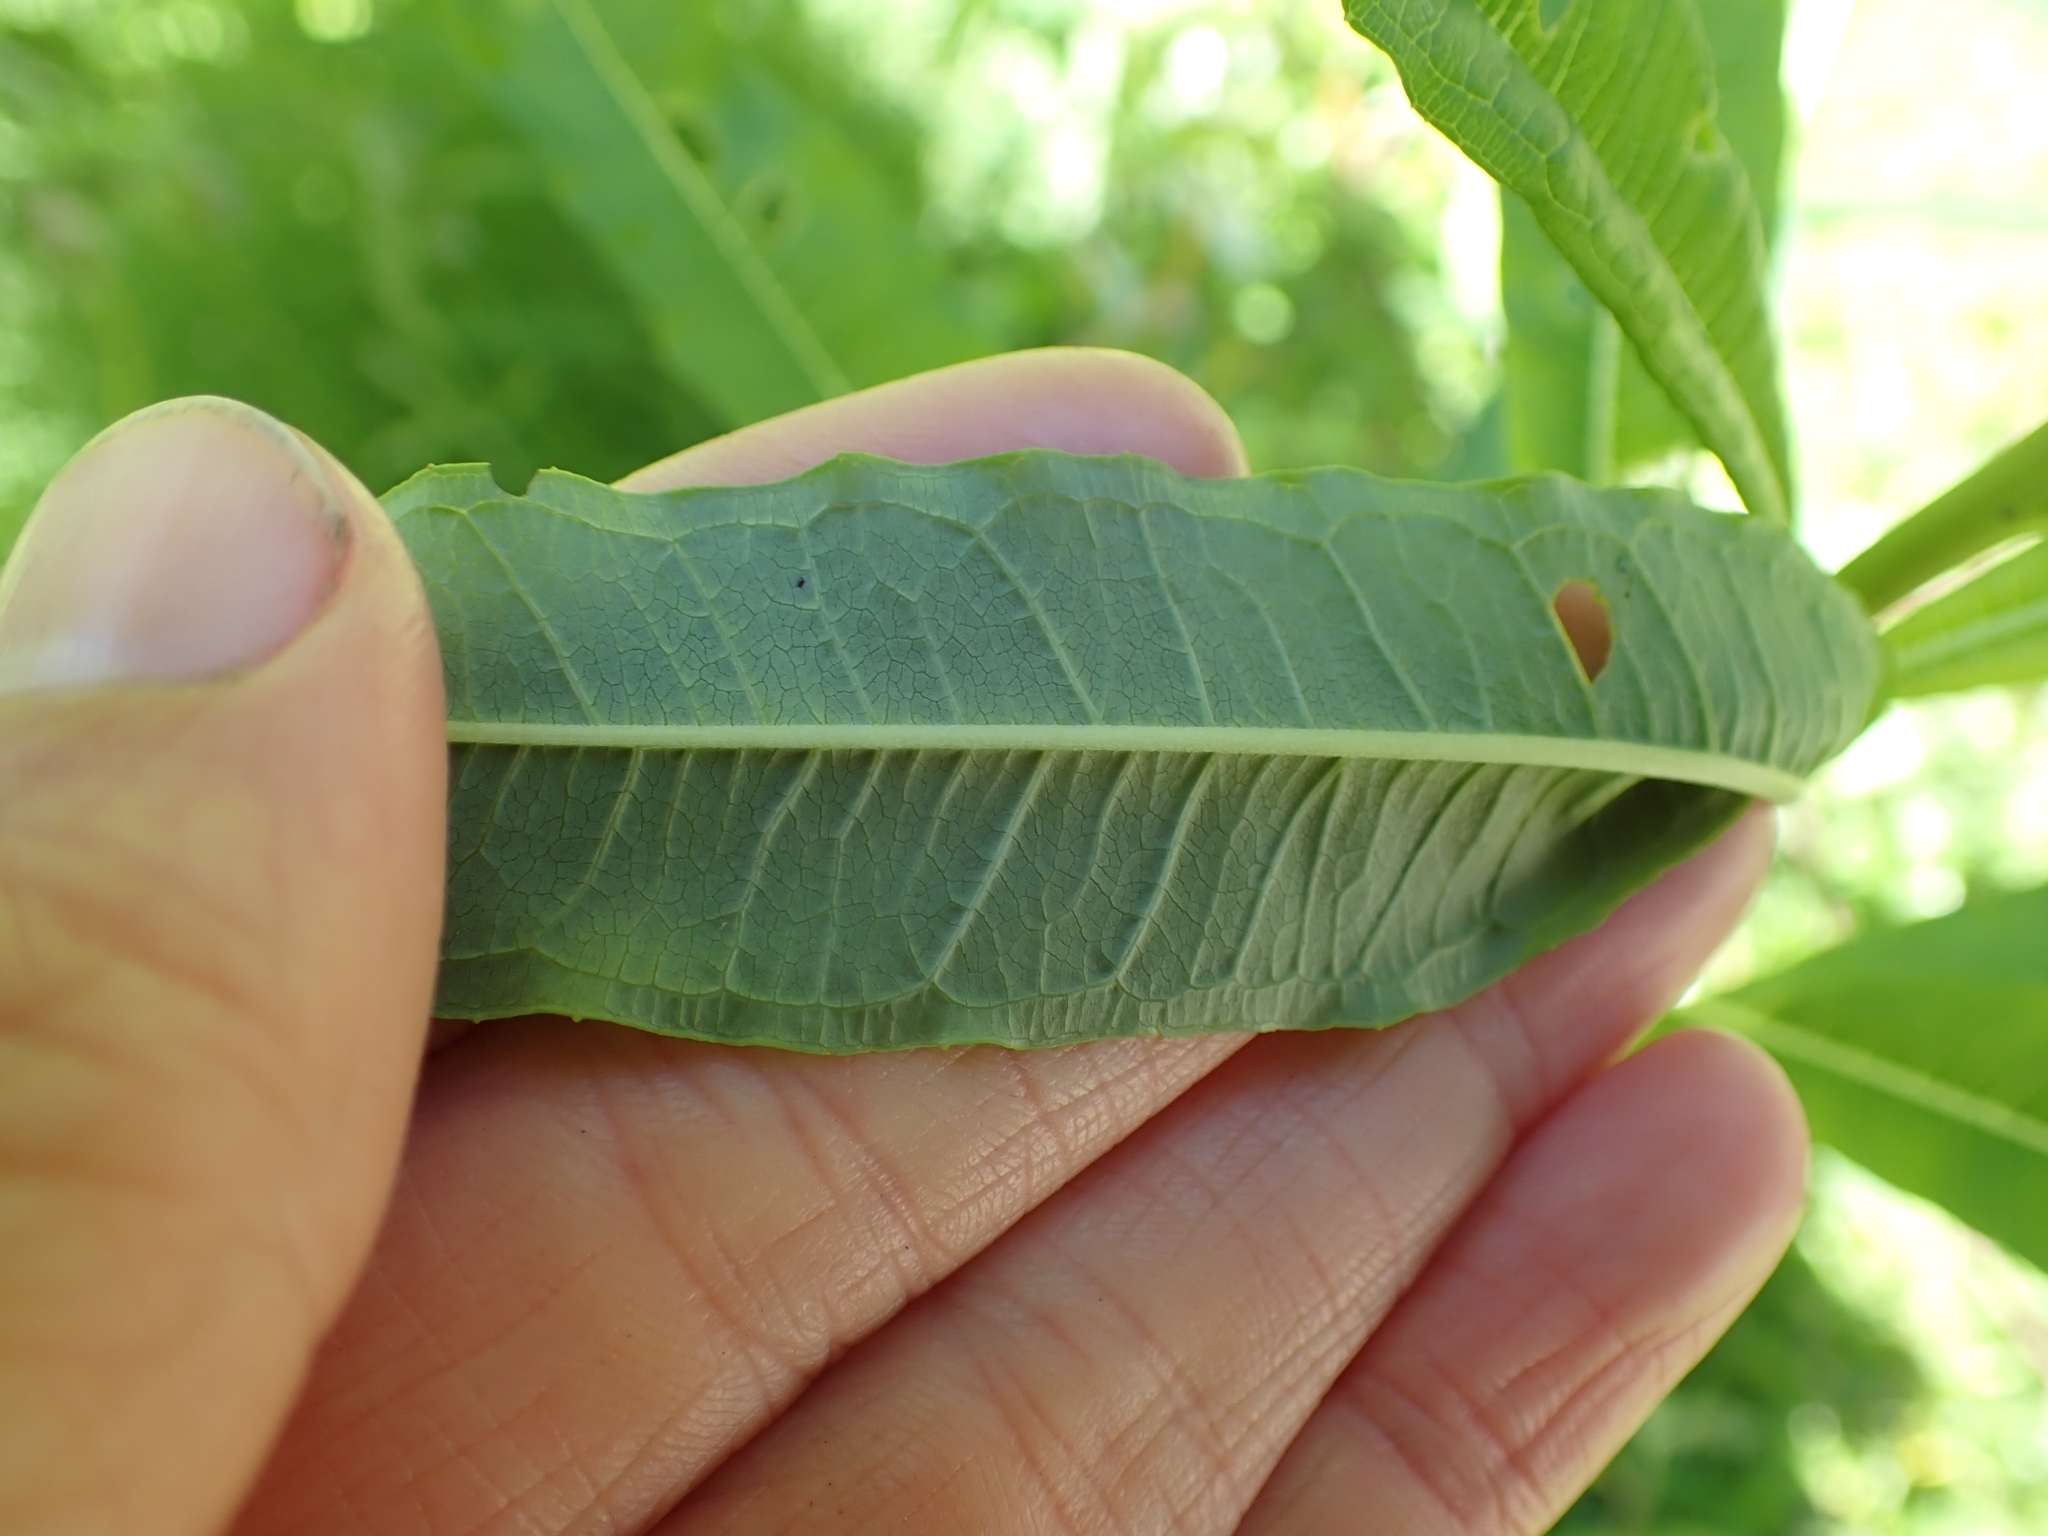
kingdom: Plantae
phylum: Tracheophyta
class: Magnoliopsida
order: Myrtales
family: Onagraceae
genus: Chamaenerion
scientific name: Chamaenerion angustifolium
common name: Fireweed
